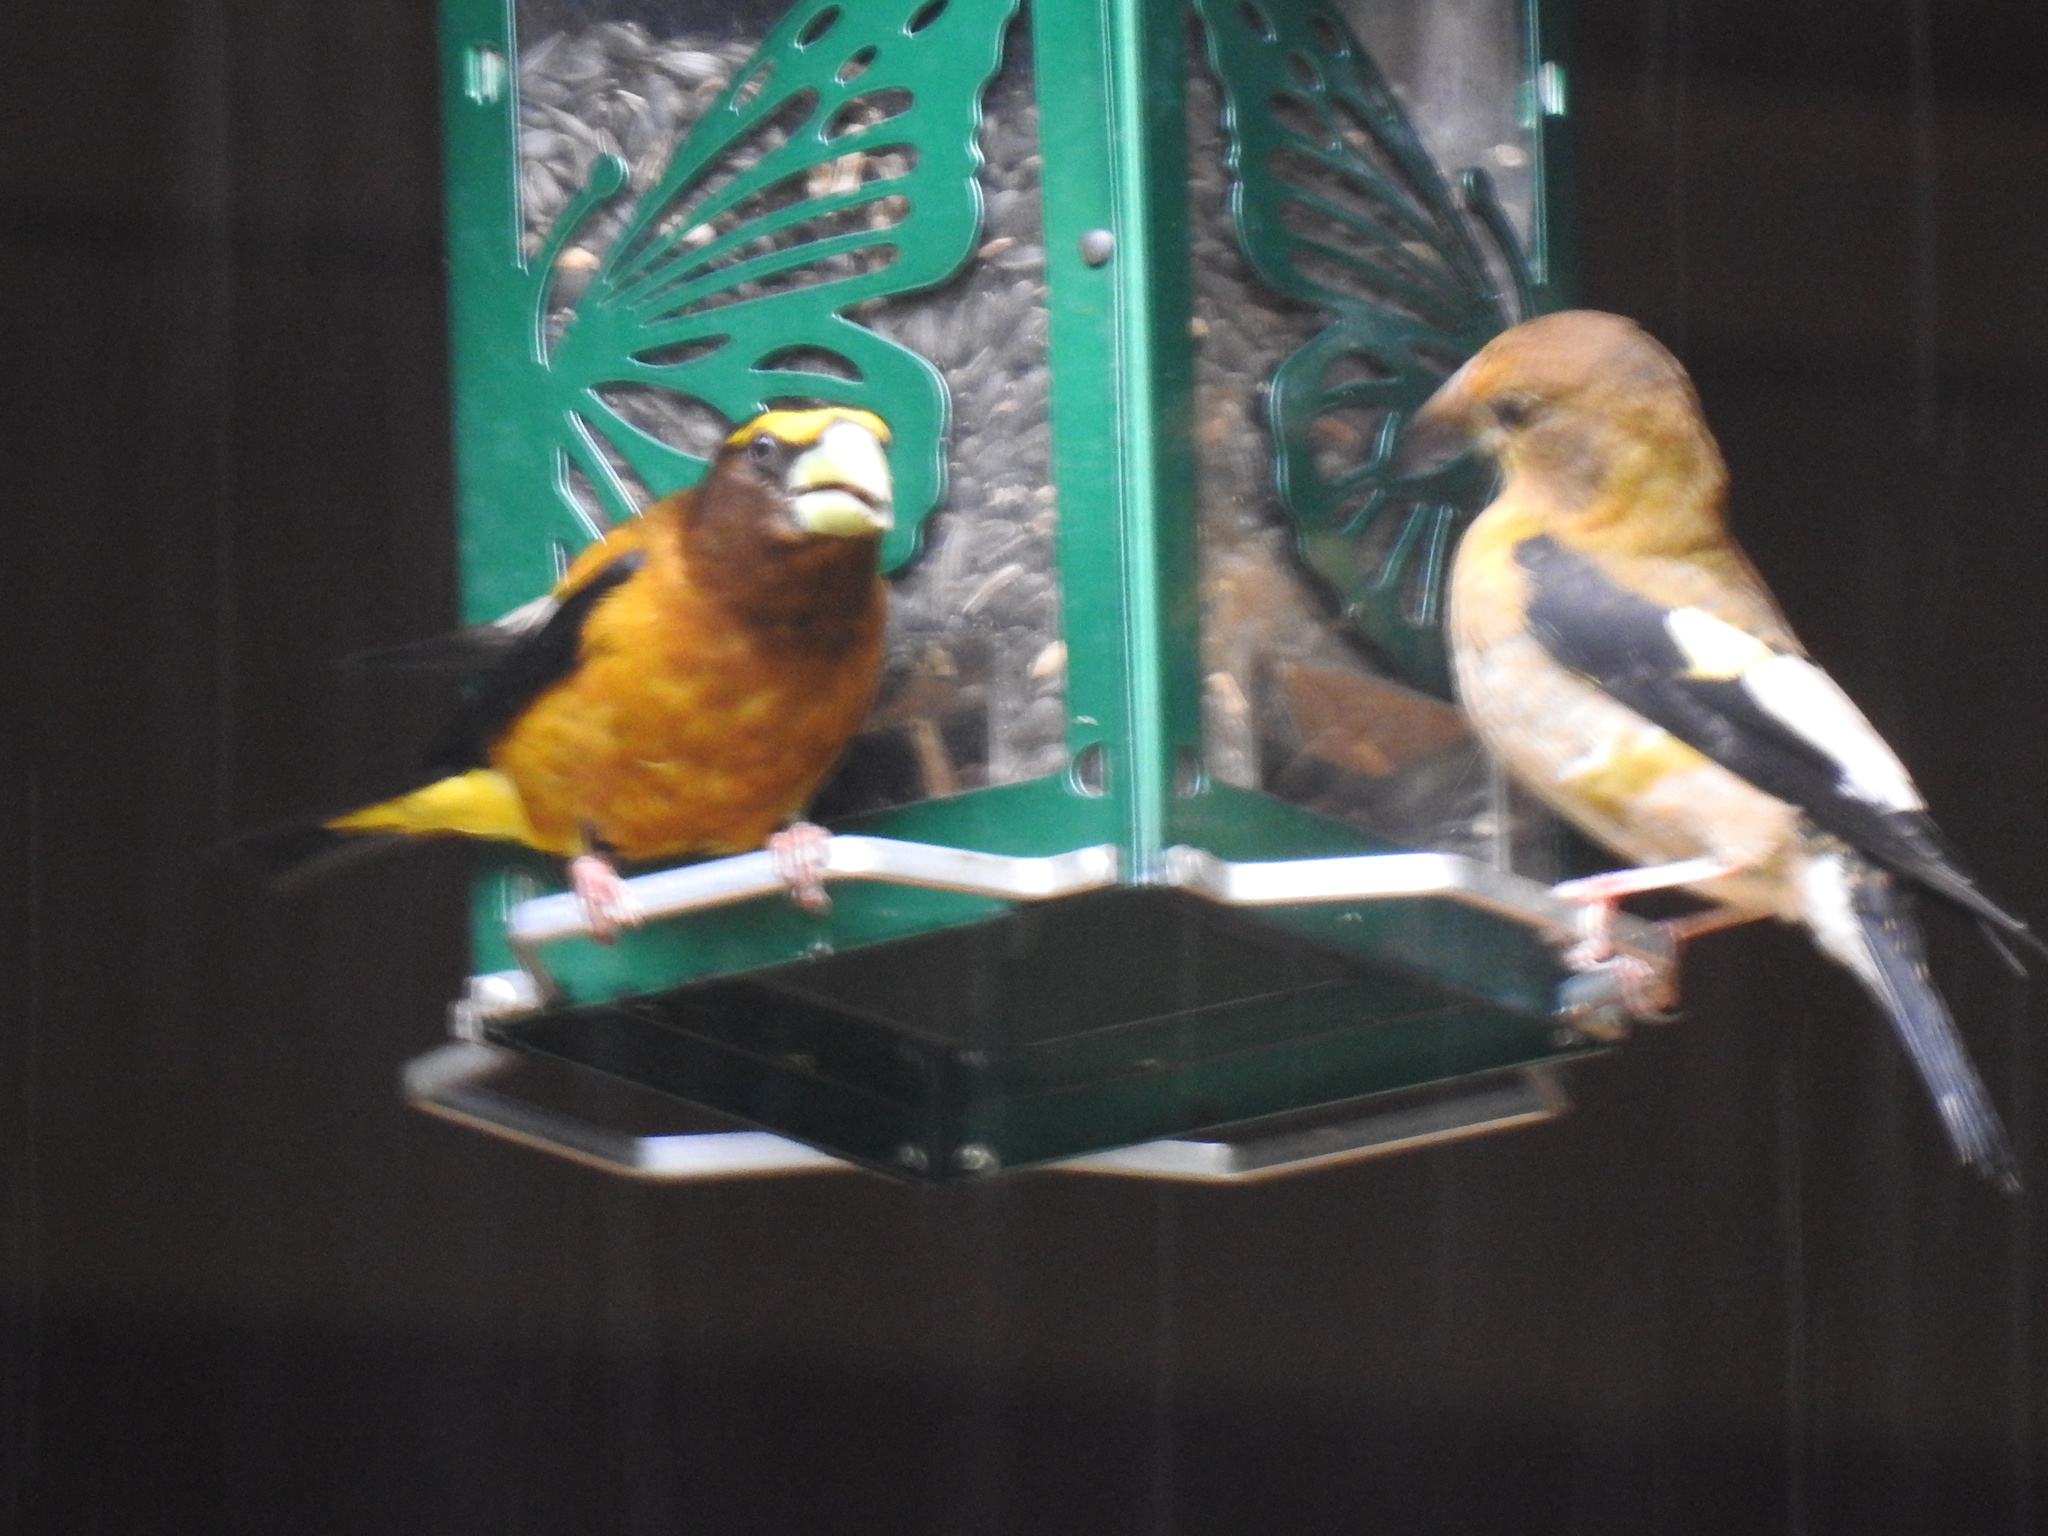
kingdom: Animalia
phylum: Chordata
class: Aves
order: Passeriformes
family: Fringillidae
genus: Hesperiphona
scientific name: Hesperiphona vespertina
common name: Evening grosbeak
